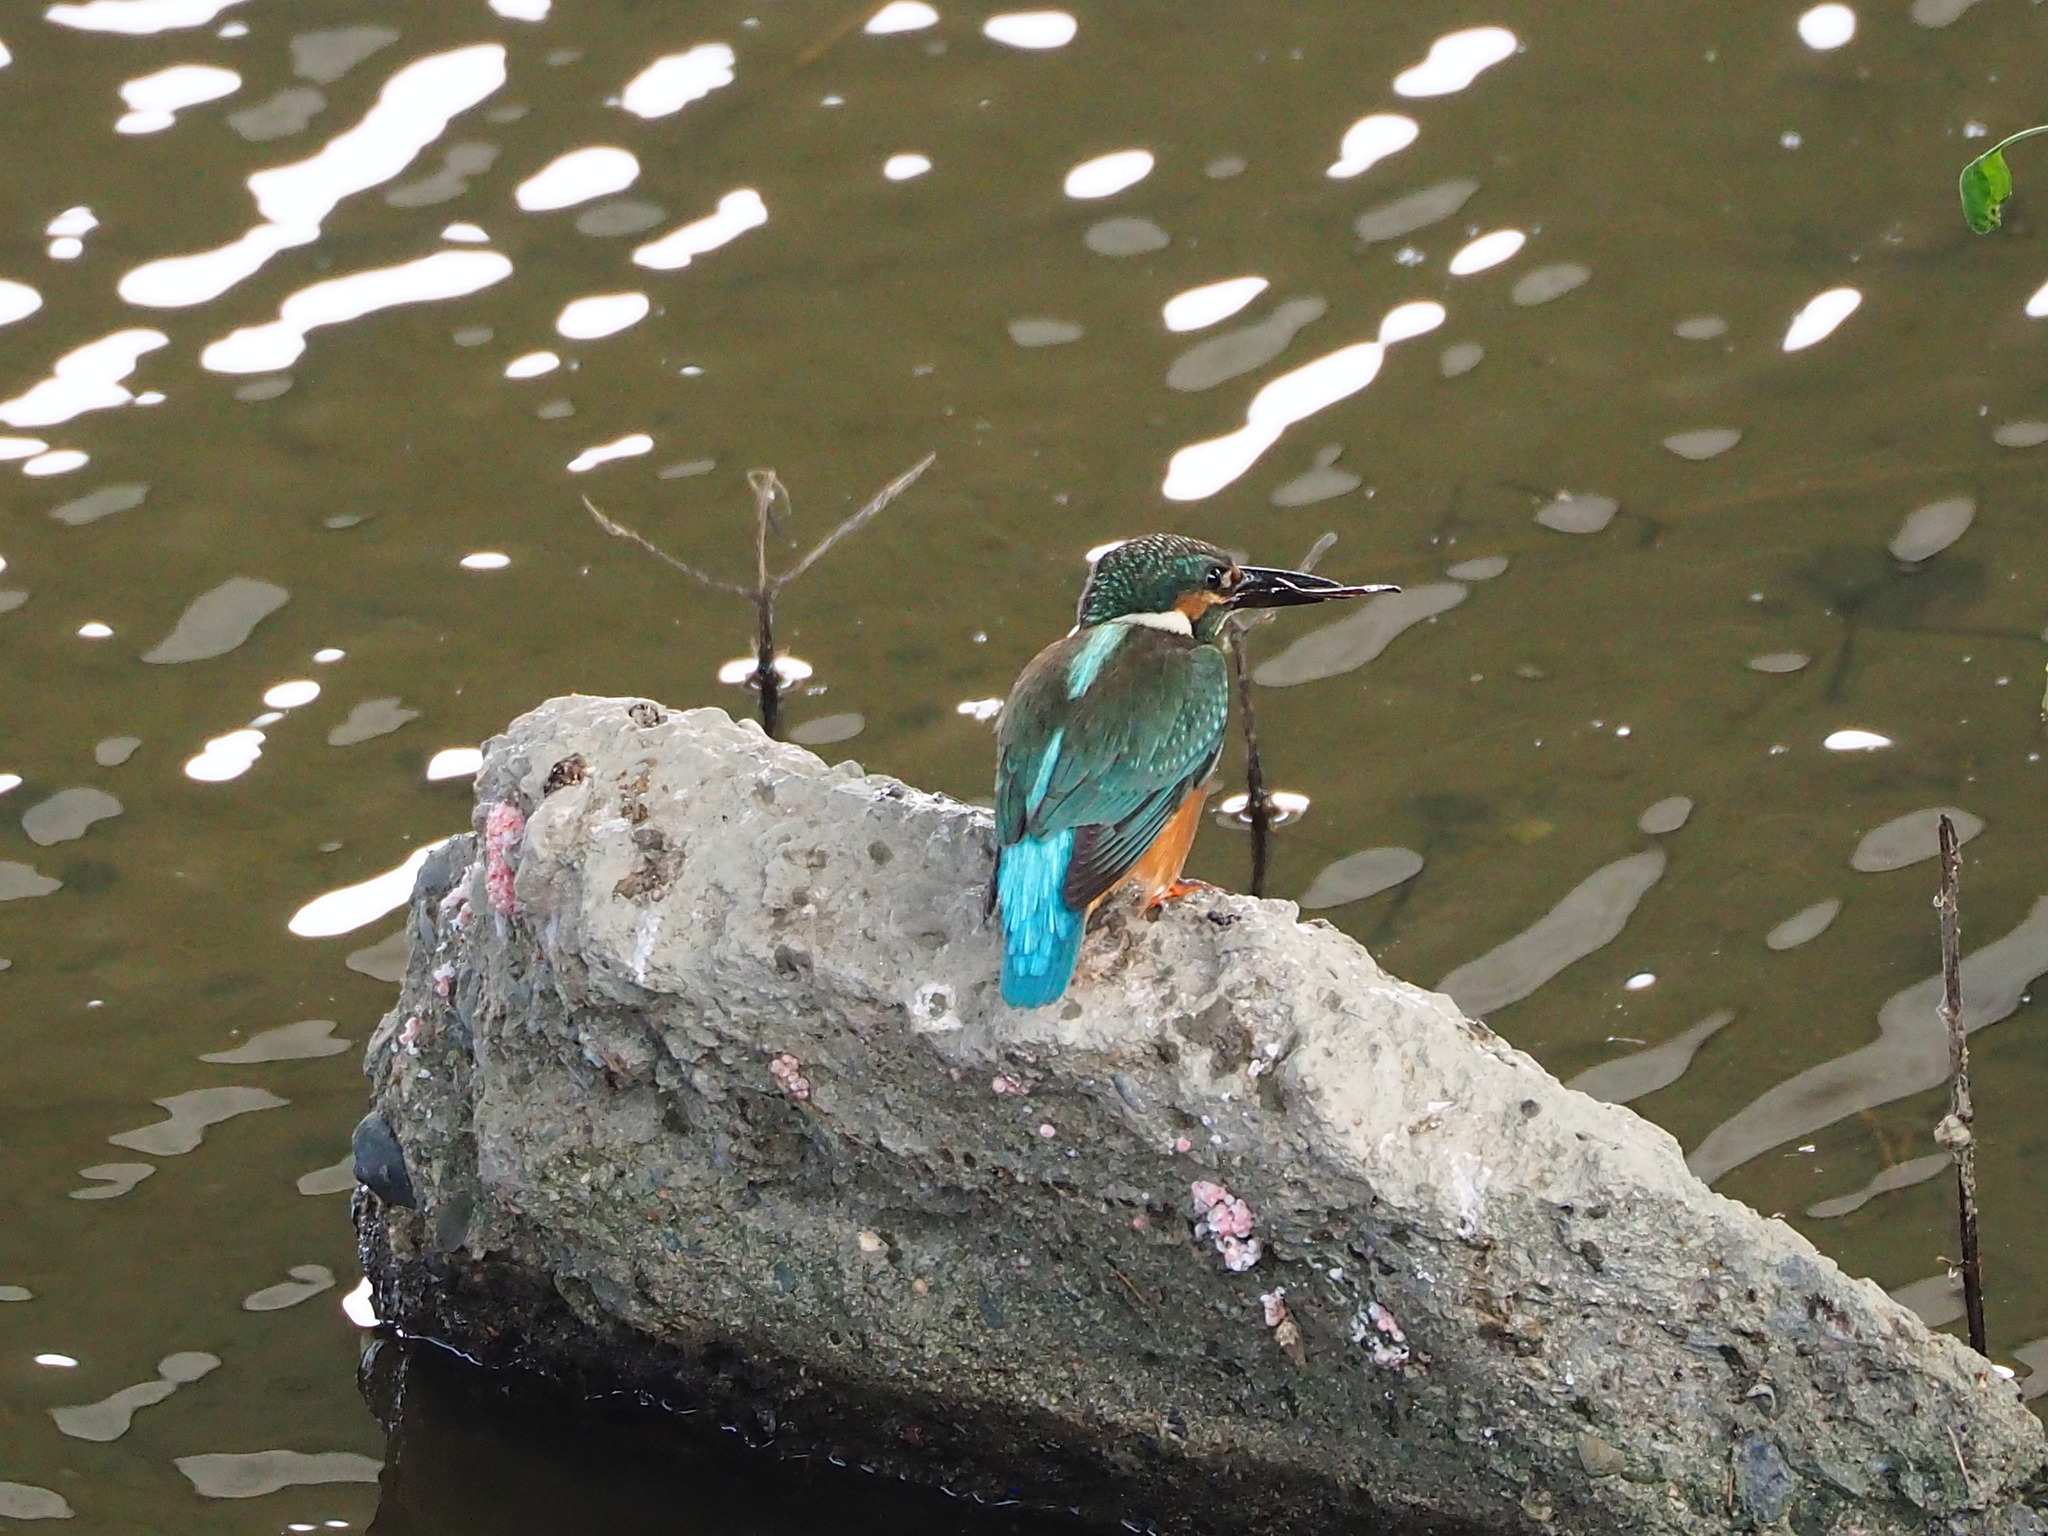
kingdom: Animalia
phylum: Chordata
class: Aves
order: Coraciiformes
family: Alcedinidae
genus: Alcedo
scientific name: Alcedo atthis
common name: Common kingfisher
